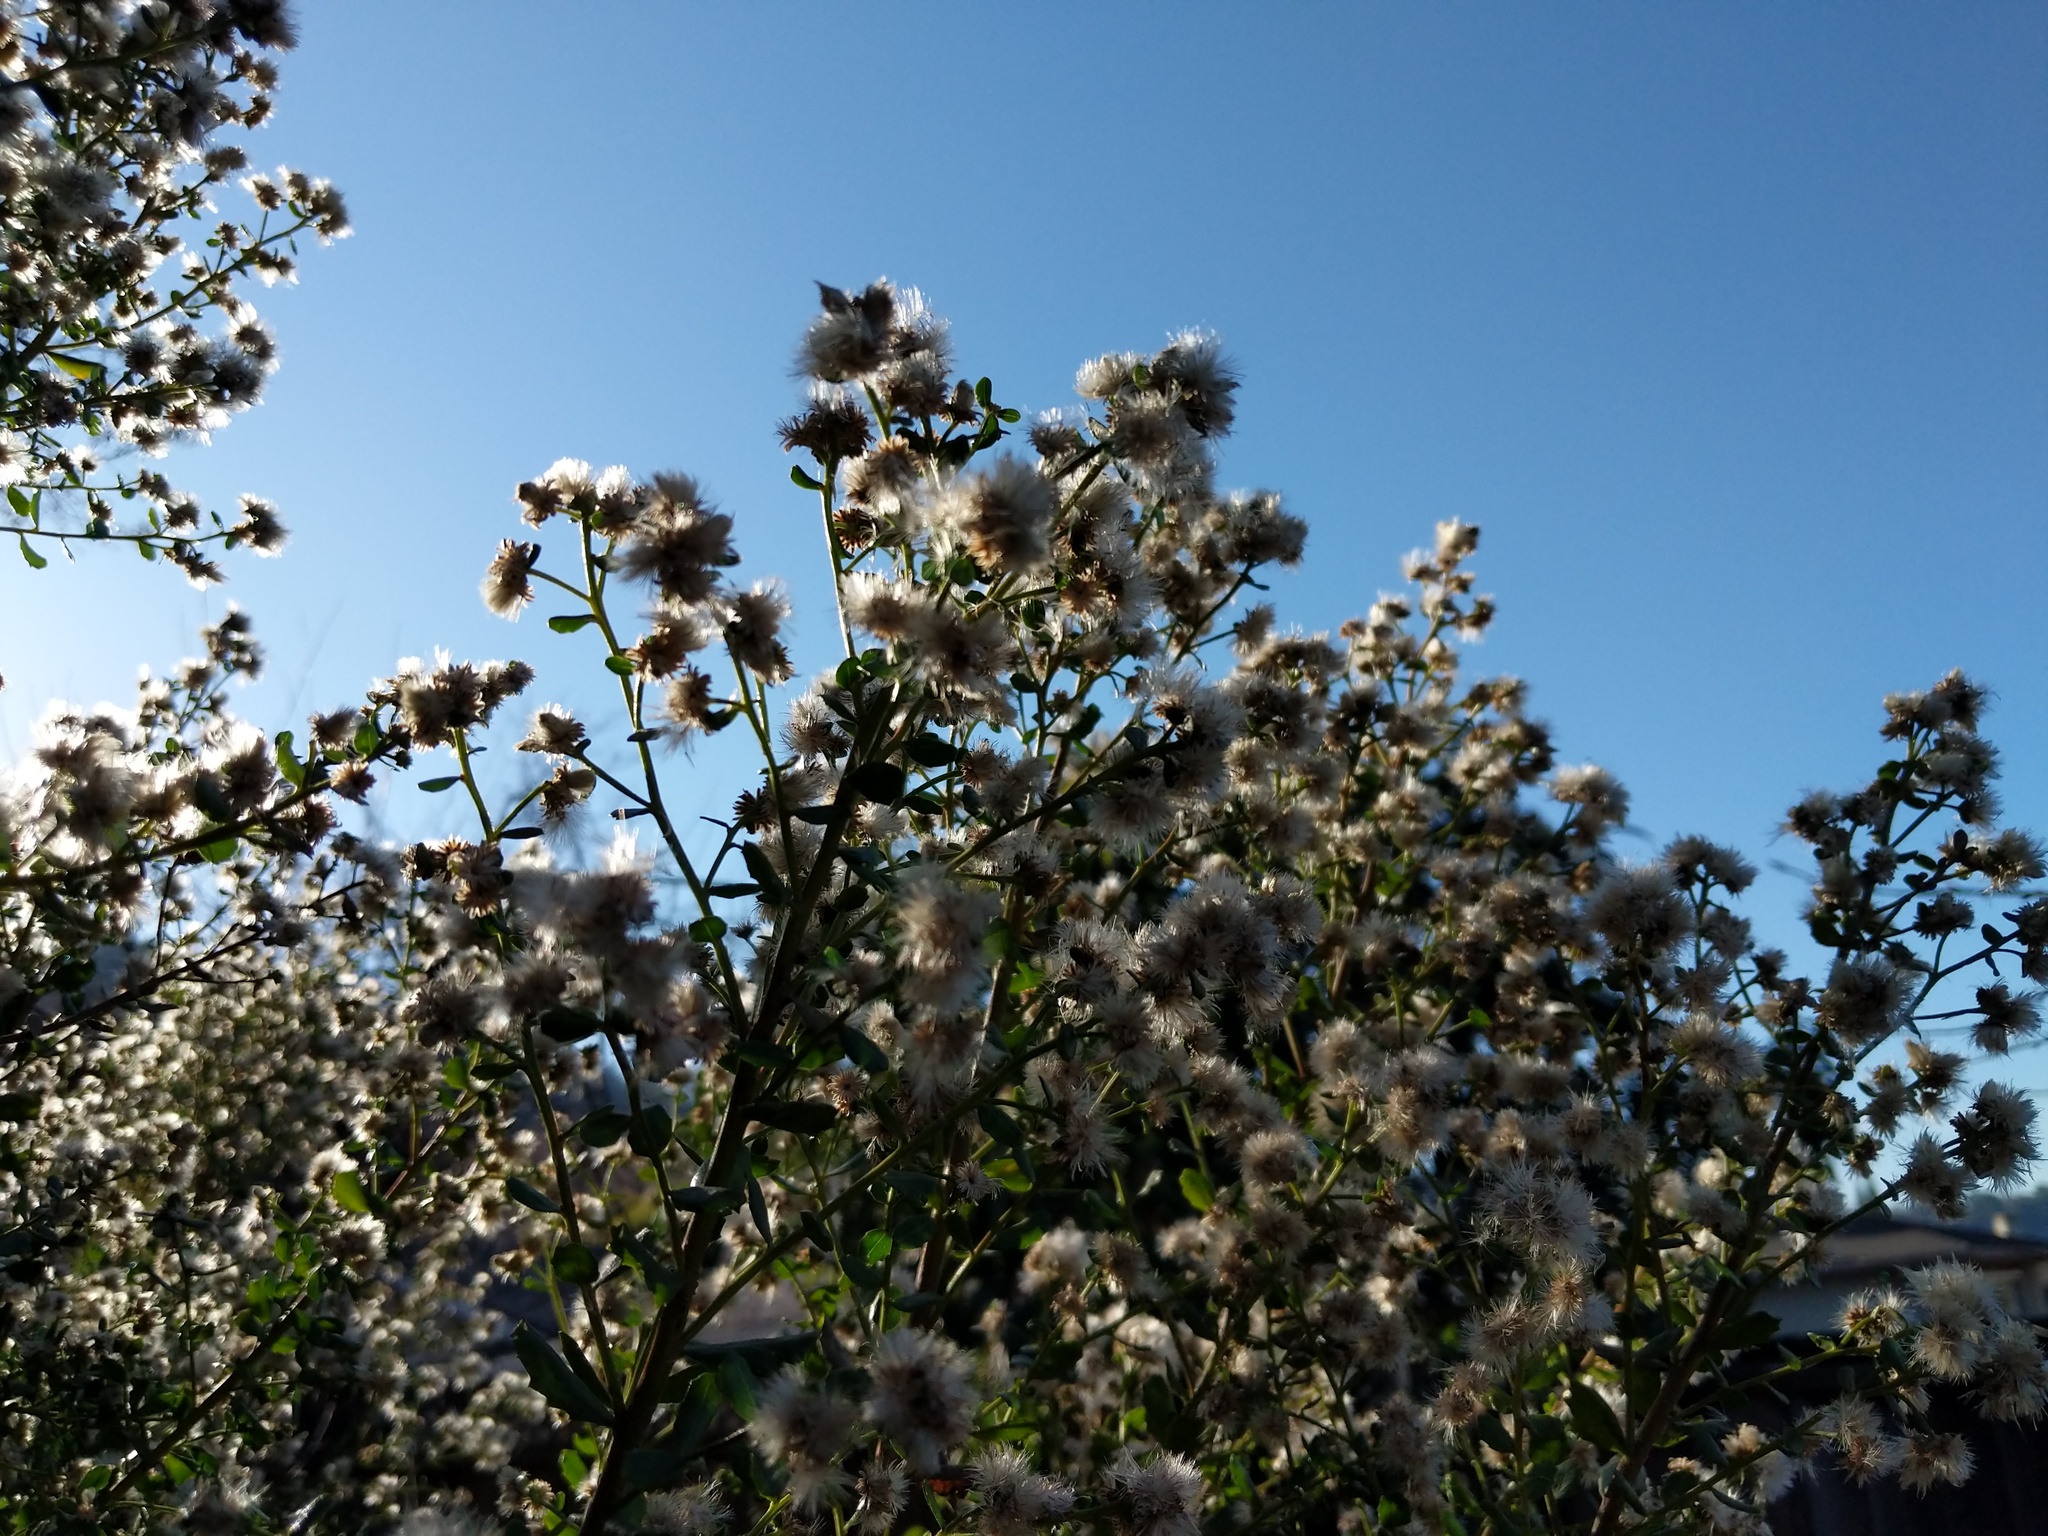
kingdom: Plantae
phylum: Tracheophyta
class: Magnoliopsida
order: Asterales
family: Asteraceae
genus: Baccharis
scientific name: Baccharis pilularis
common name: Coyotebrush
